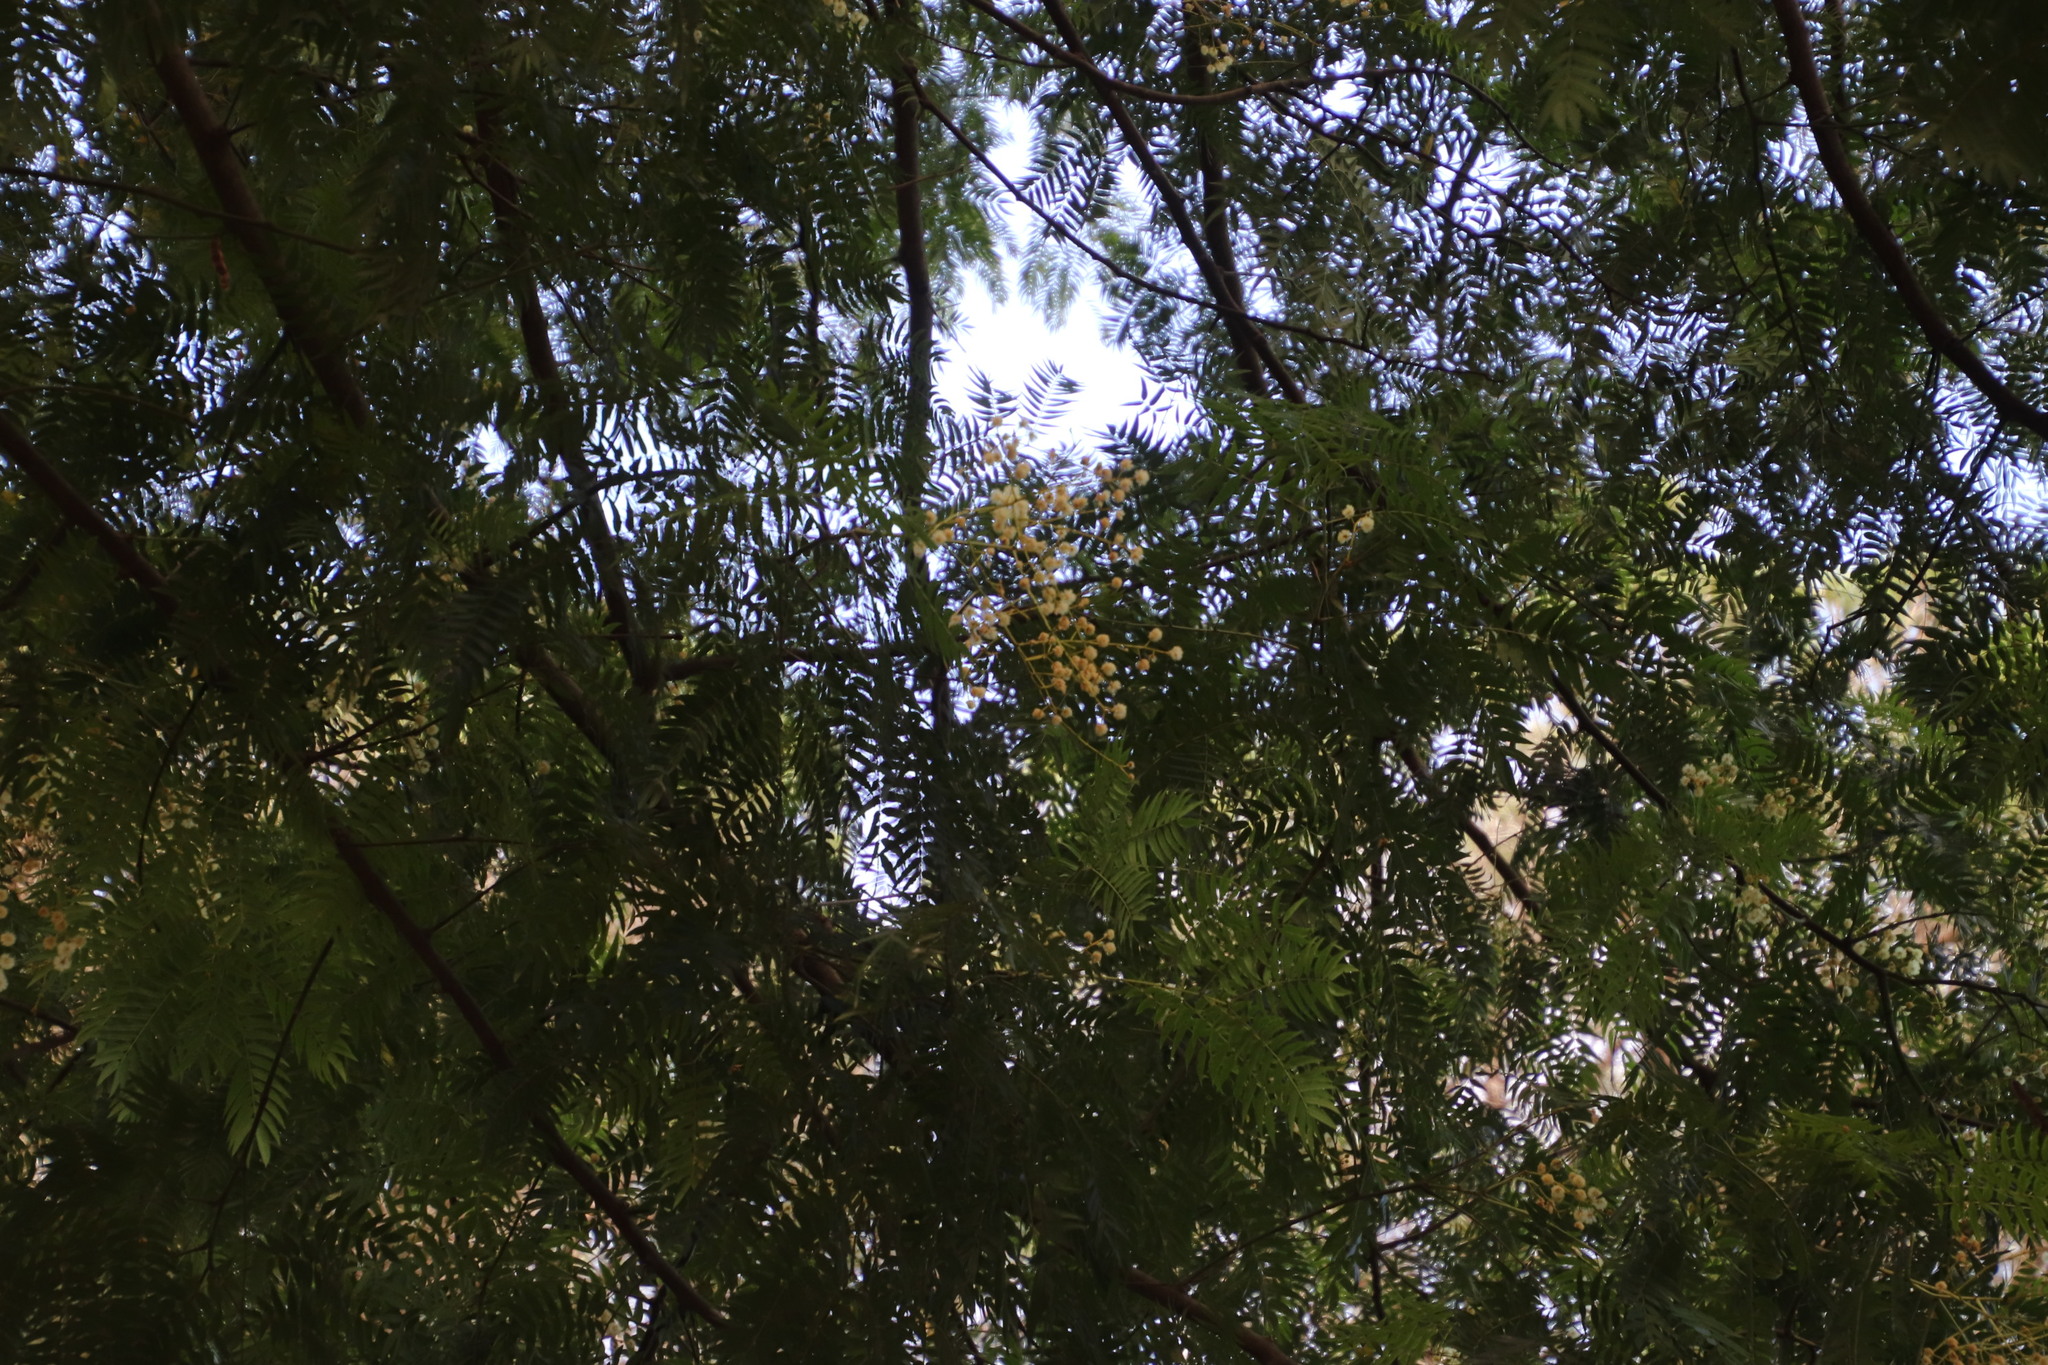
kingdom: Plantae
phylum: Tracheophyta
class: Magnoliopsida
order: Fabales
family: Fabaceae
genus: Acacia
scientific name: Acacia elata
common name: Cedar wattle
